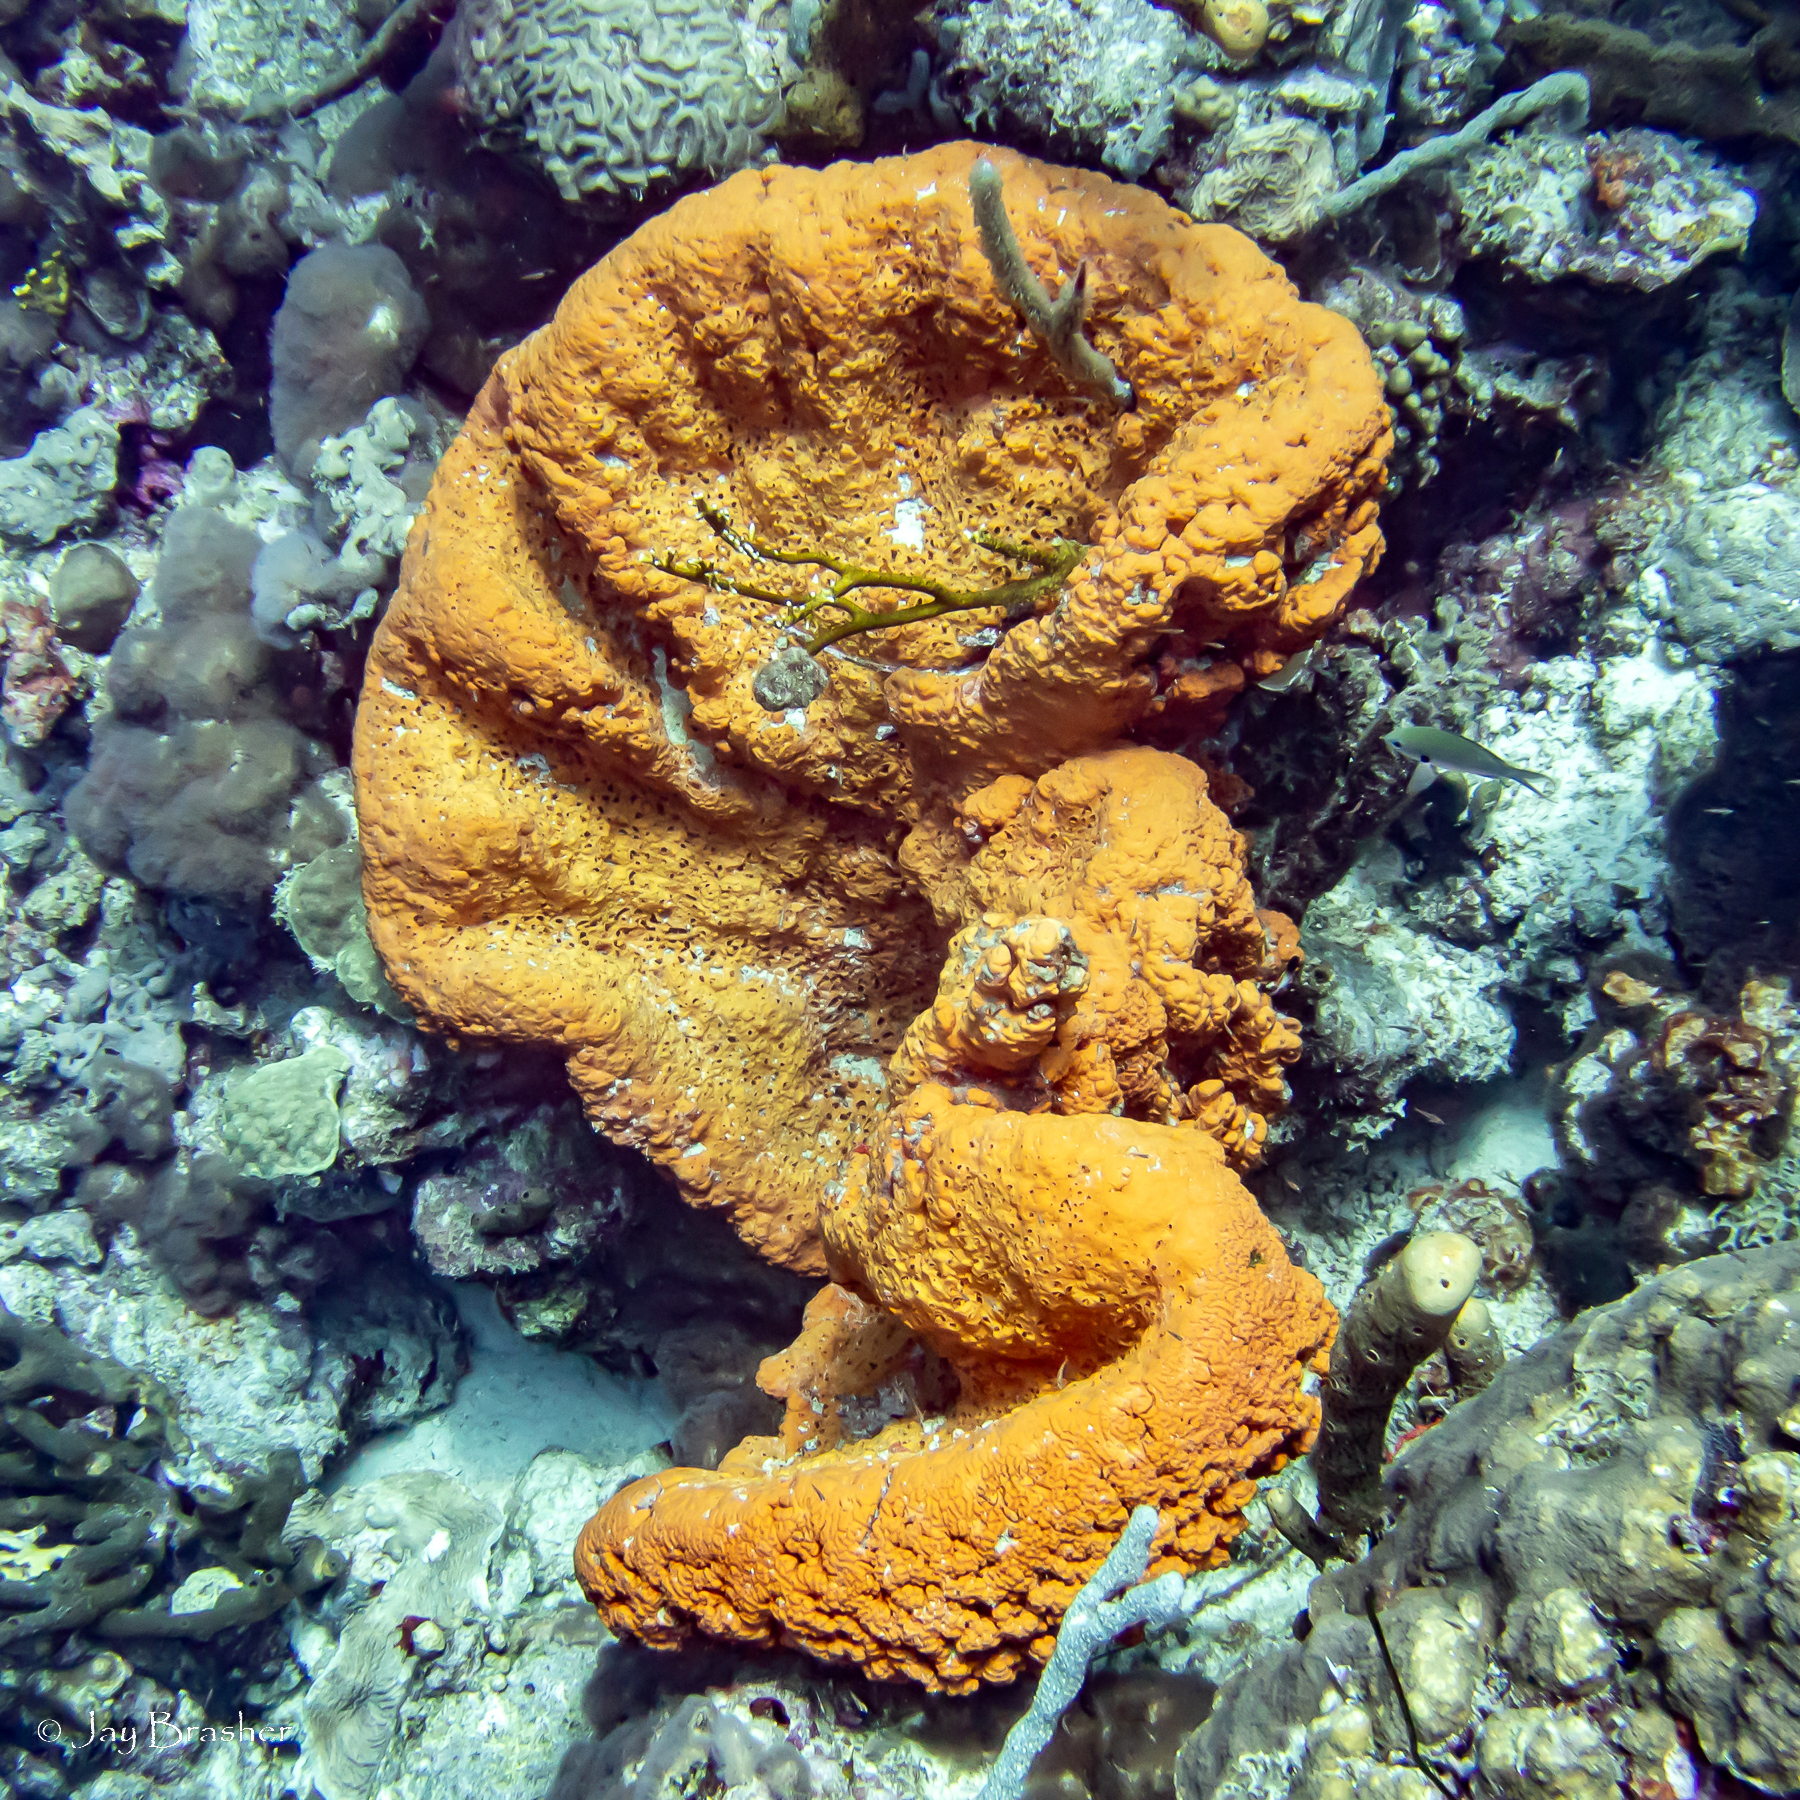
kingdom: Animalia
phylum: Porifera
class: Demospongiae
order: Agelasida
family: Agelasidae
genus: Agelas
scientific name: Agelas clathrodes
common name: Orange elephant ear sponge
